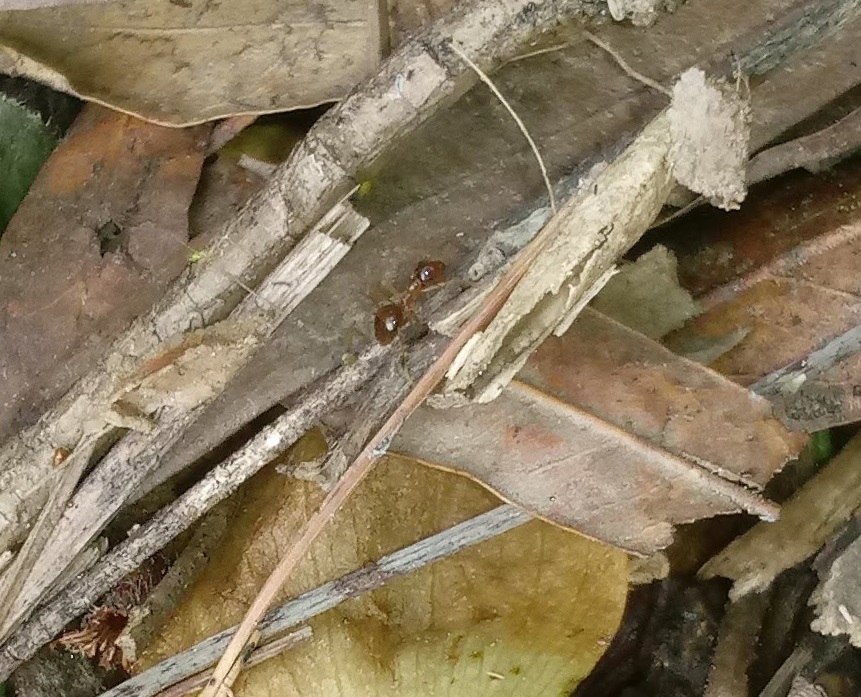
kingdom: Animalia
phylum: Arthropoda
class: Insecta
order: Hymenoptera
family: Formicidae
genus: Prenolepis
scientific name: Prenolepis imparis
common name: Small honey ant
